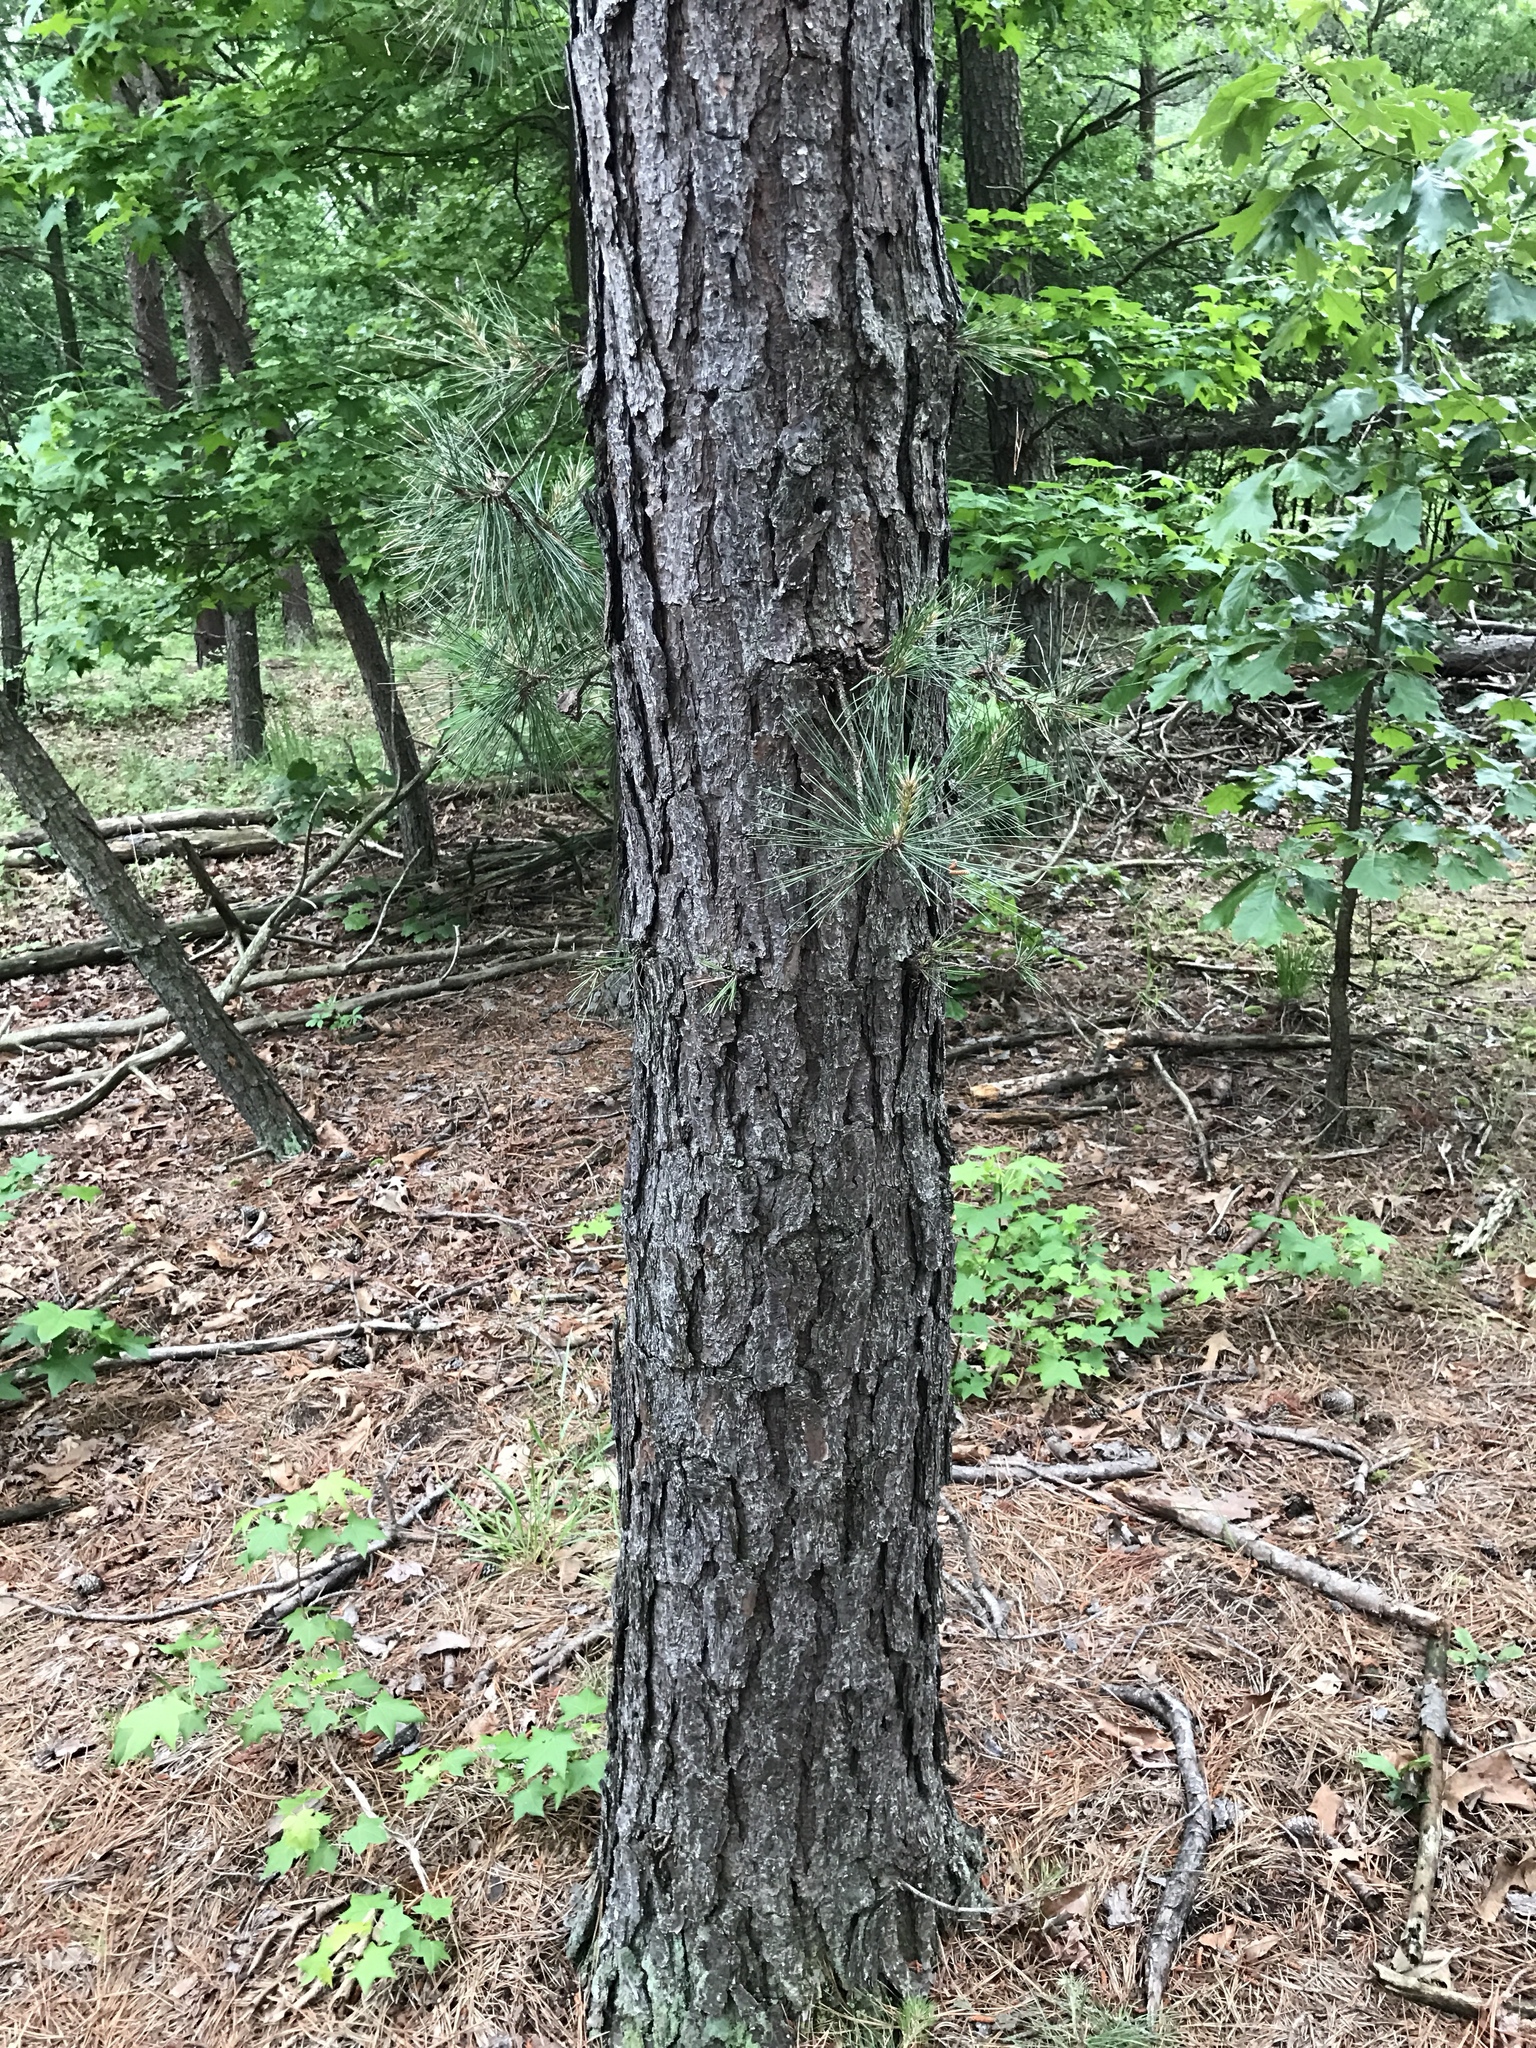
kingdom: Plantae
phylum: Tracheophyta
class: Pinopsida
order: Pinales
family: Pinaceae
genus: Pinus
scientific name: Pinus rigida
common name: Pitch pine
